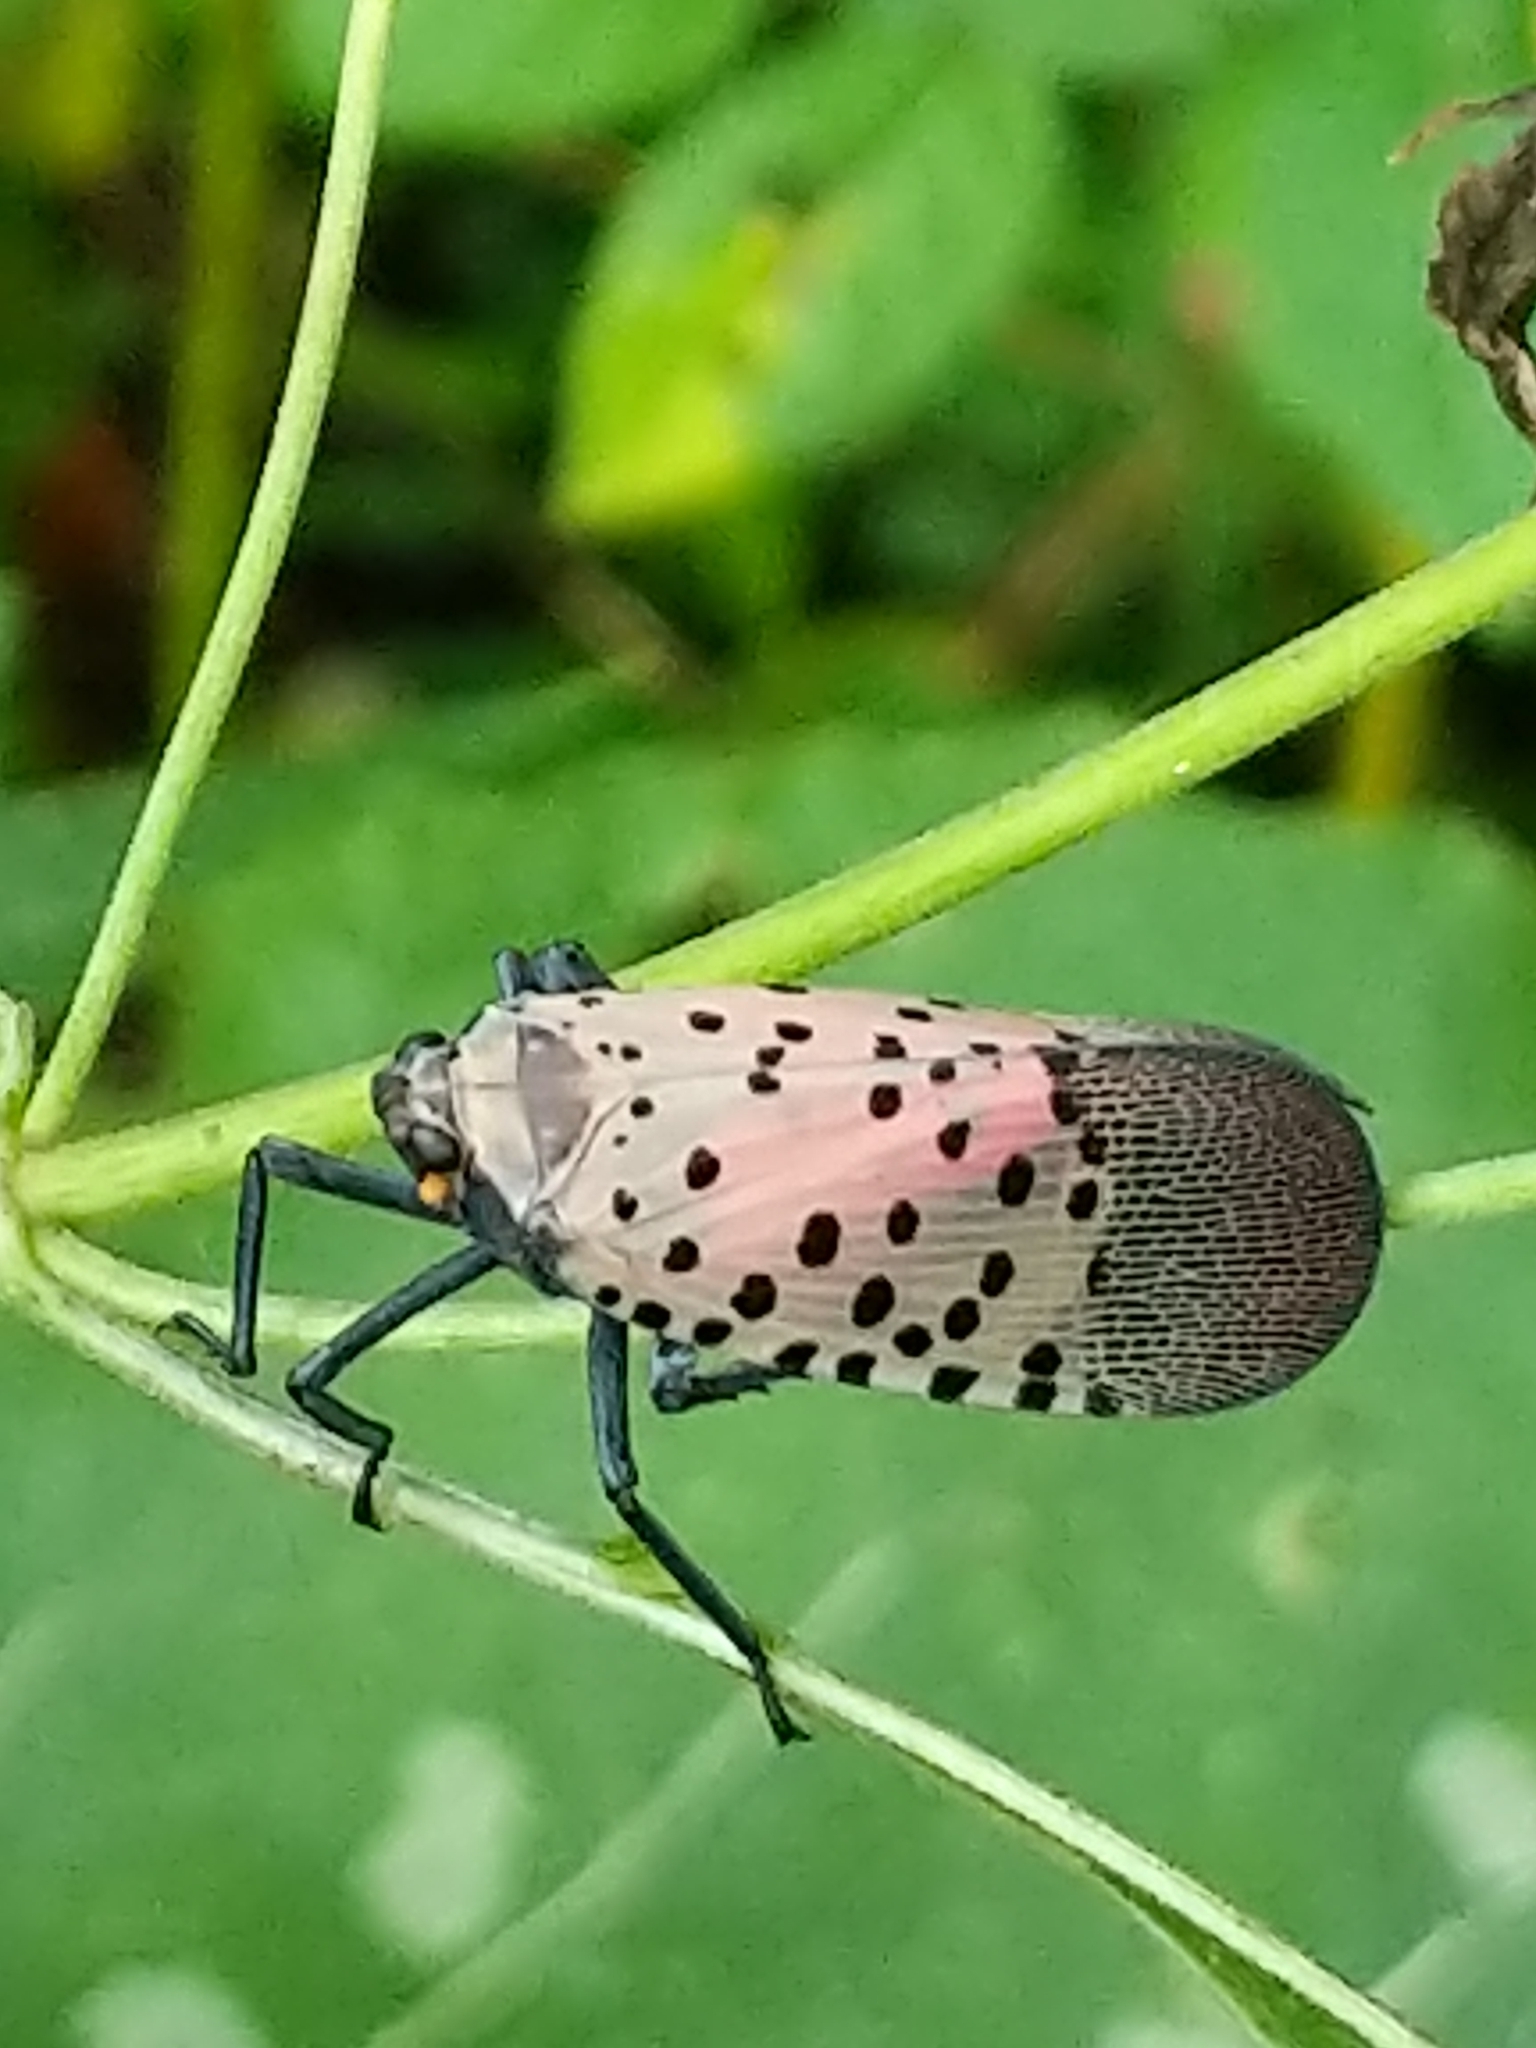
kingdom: Animalia
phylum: Arthropoda
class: Insecta
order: Hemiptera
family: Fulgoridae
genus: Lycorma
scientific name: Lycorma delicatula
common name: Spotted lanternfly
